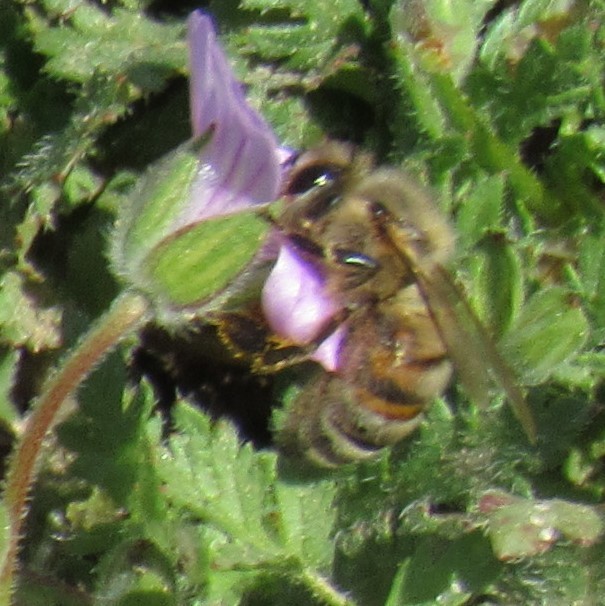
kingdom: Animalia
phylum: Arthropoda
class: Insecta
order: Hymenoptera
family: Apidae
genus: Apis
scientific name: Apis mellifera
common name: Honey bee
